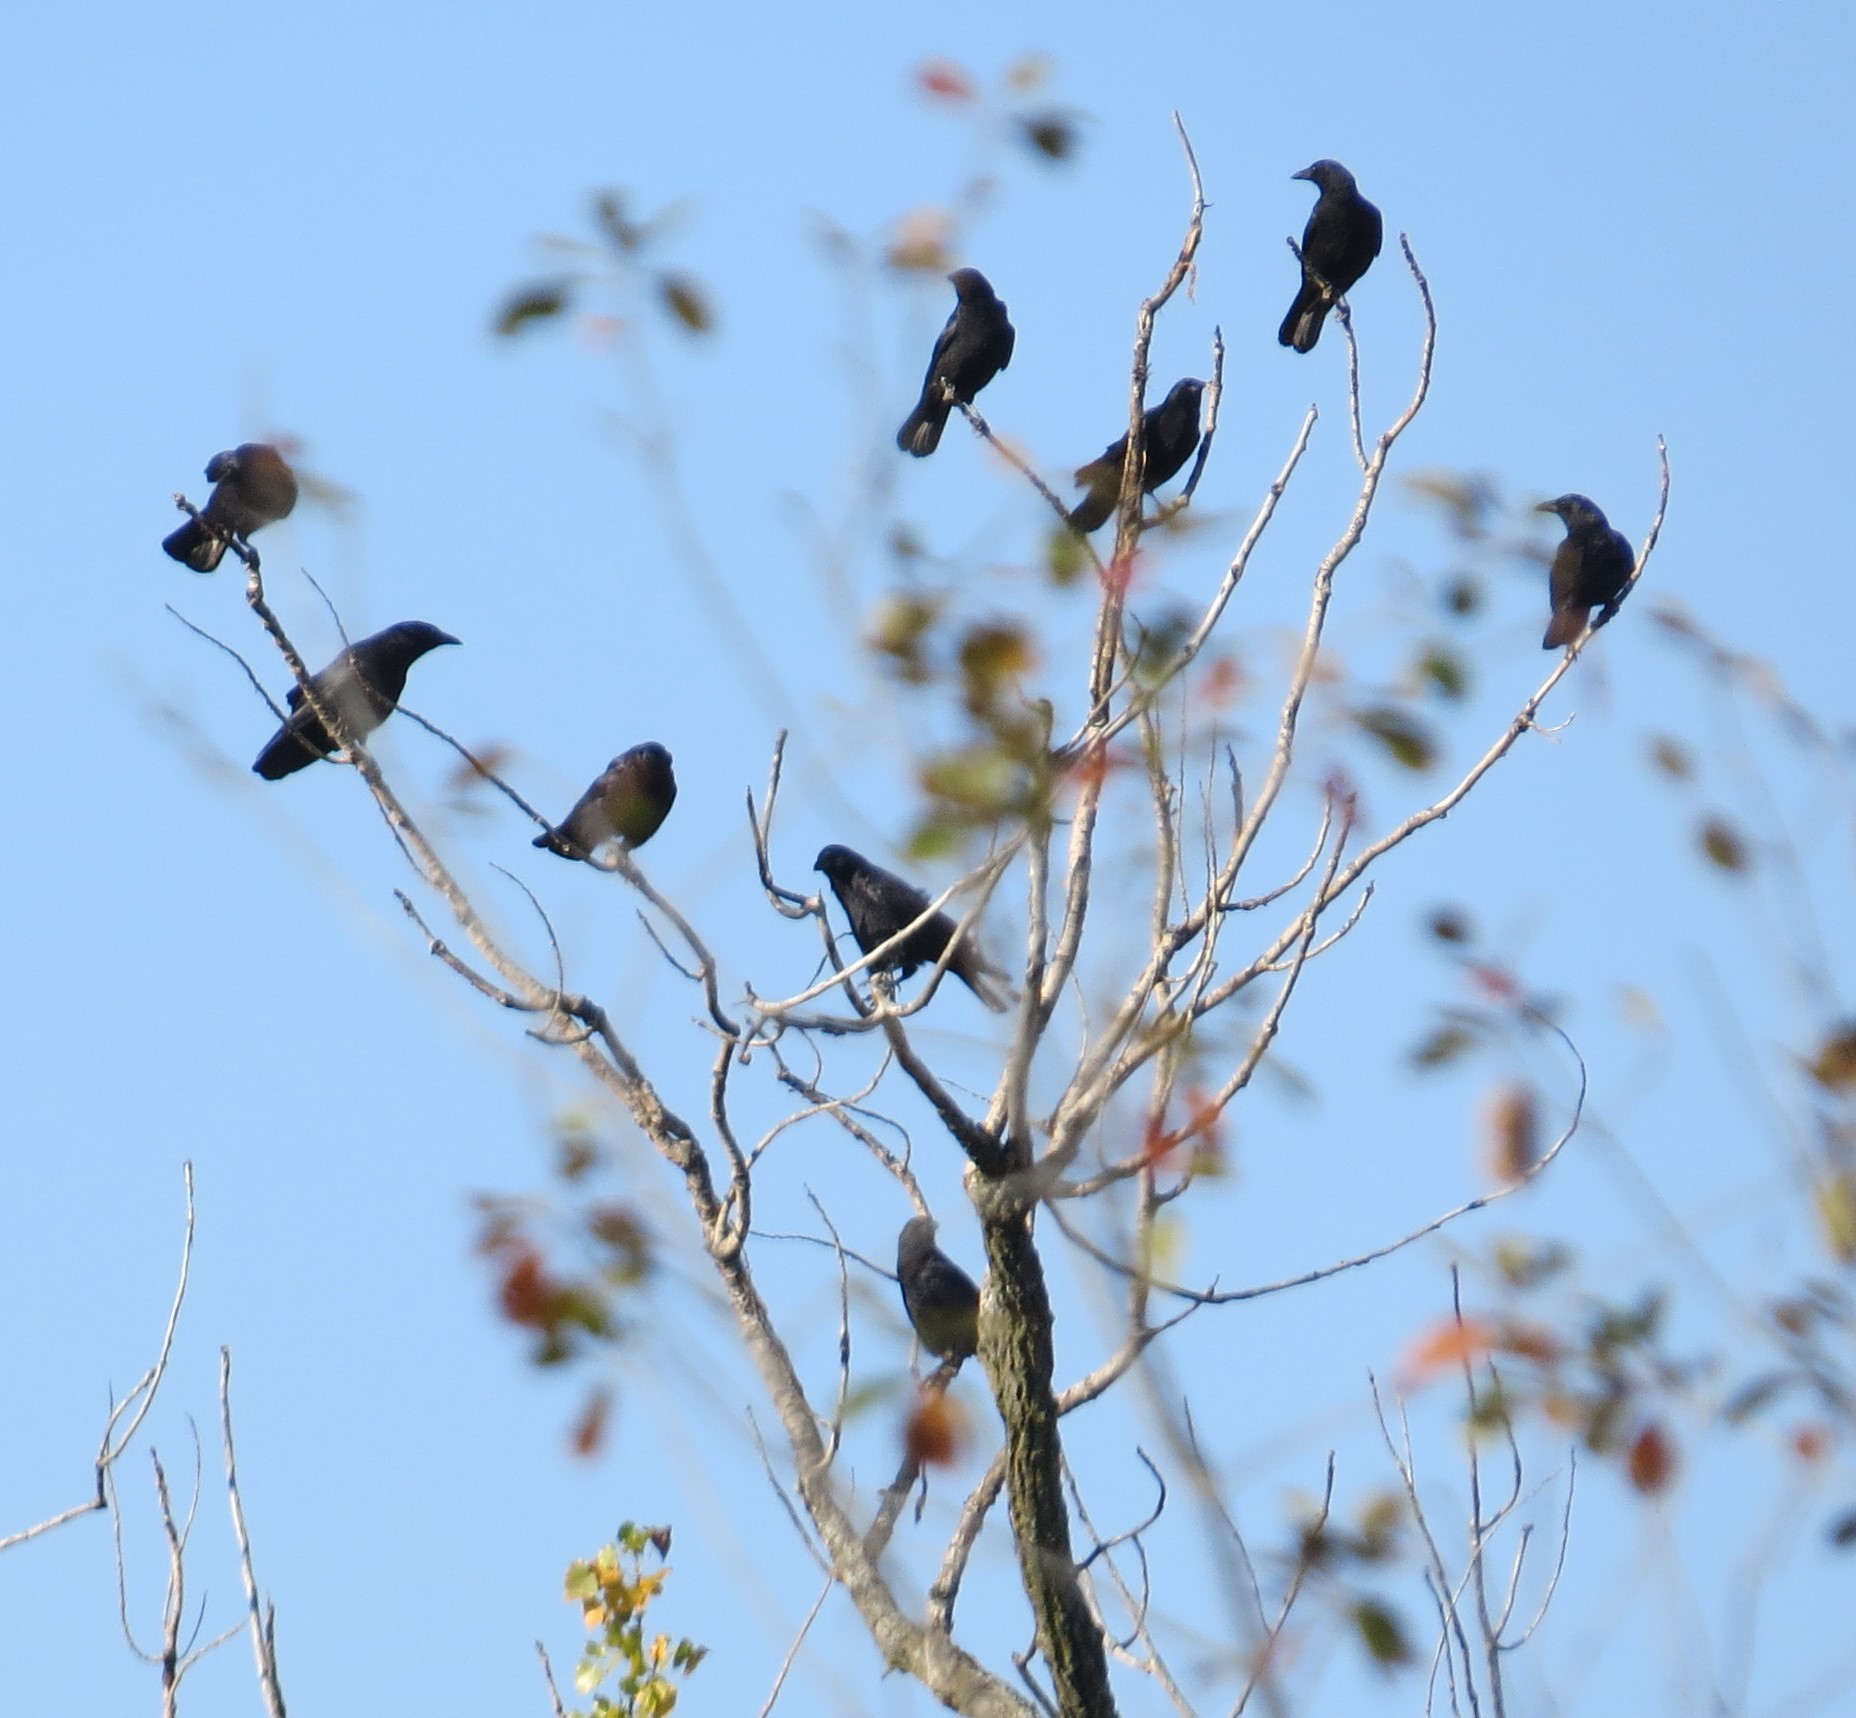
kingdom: Animalia
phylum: Chordata
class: Aves
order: Passeriformes
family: Corvidae
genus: Corvus
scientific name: Corvus brachyrhynchos
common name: American crow
